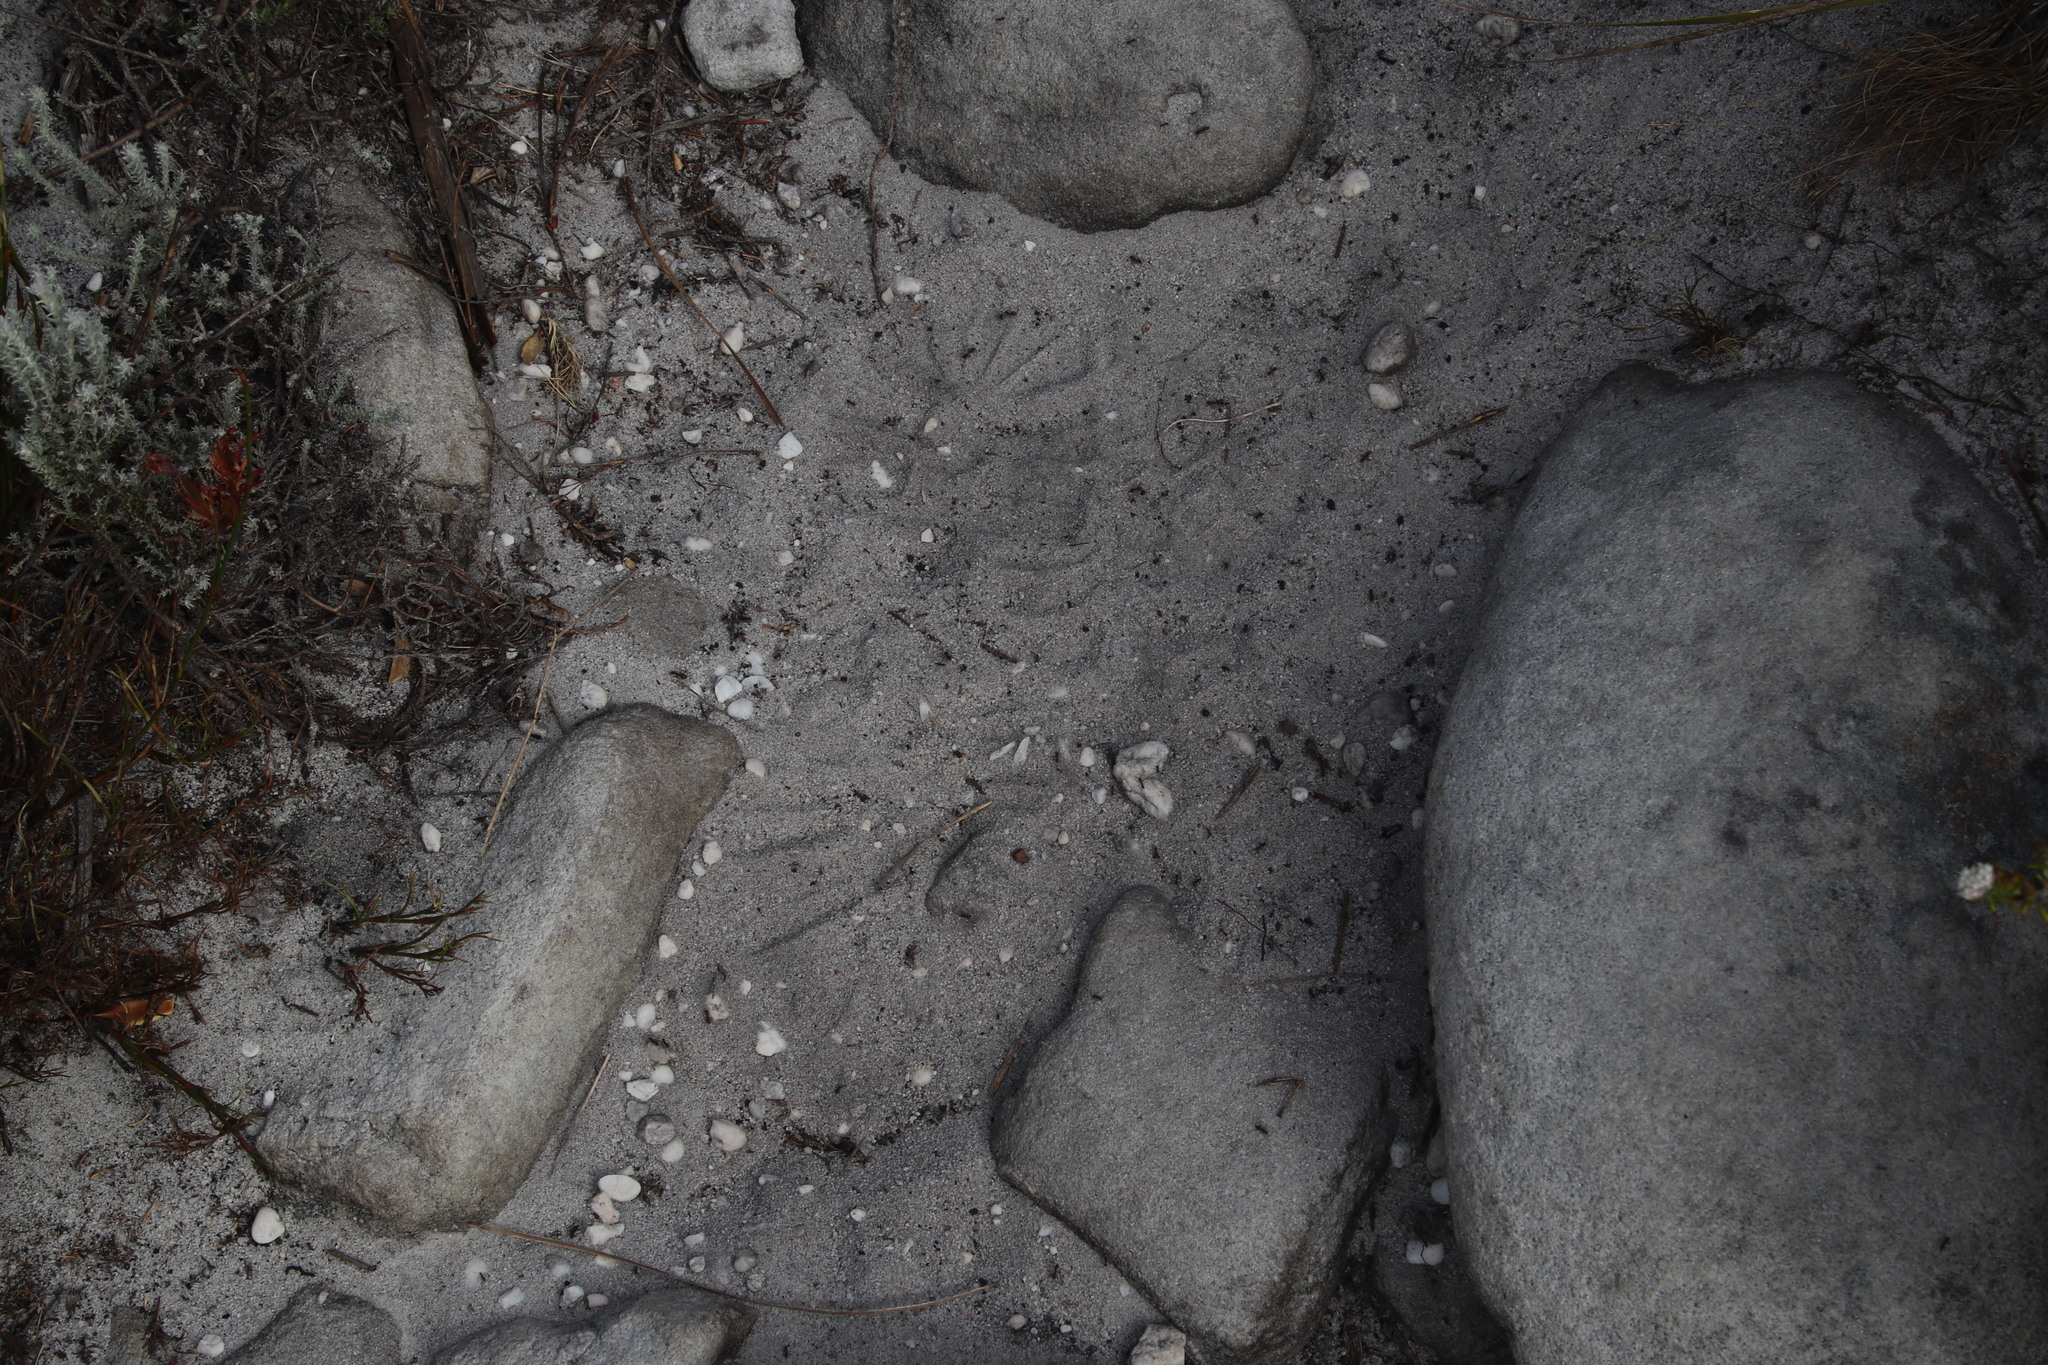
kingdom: Animalia
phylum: Arthropoda
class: Insecta
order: Hymenoptera
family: Formicidae
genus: Anoplolepis
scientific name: Anoplolepis steingroeveri
